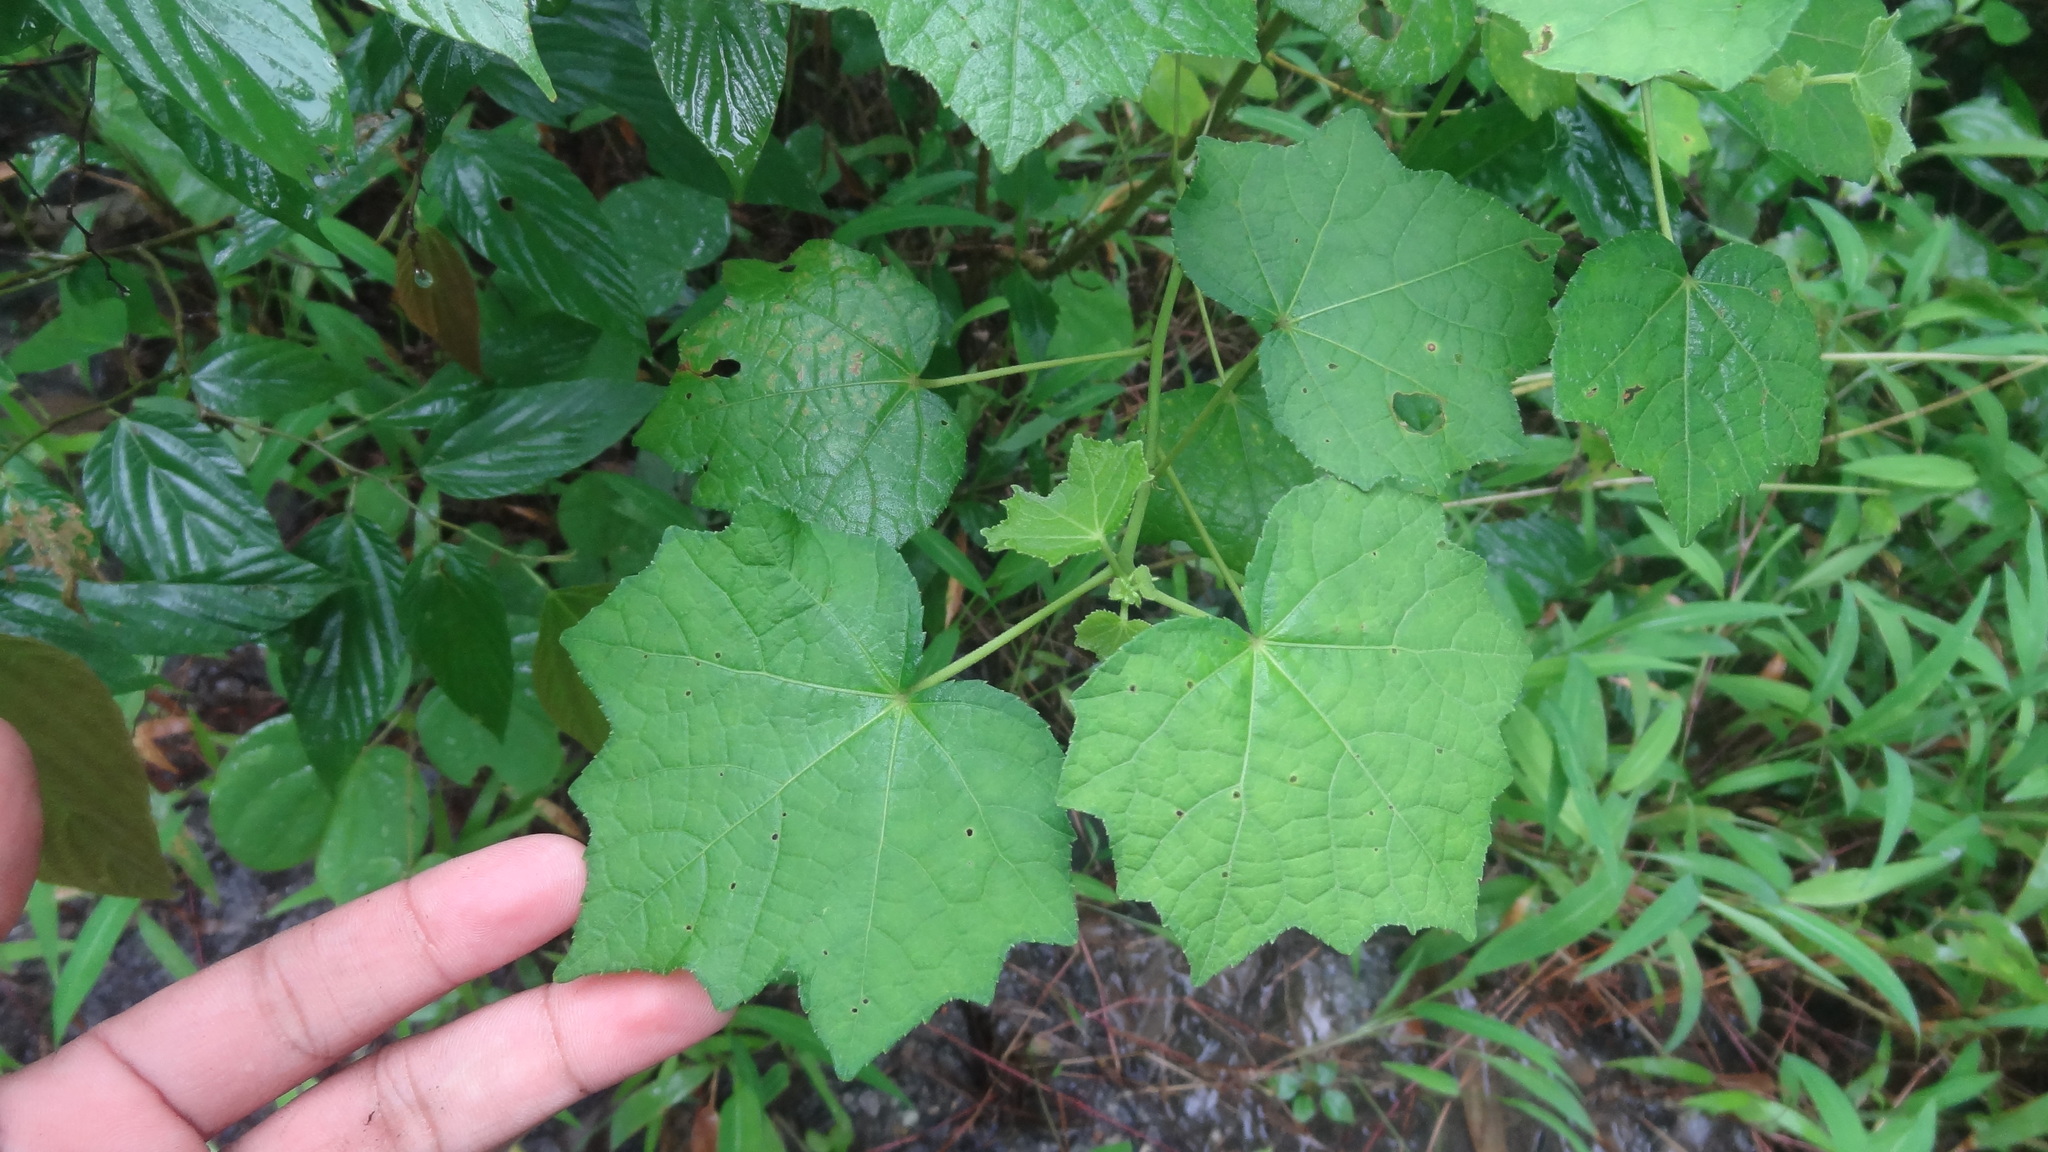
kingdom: Plantae
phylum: Tracheophyta
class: Magnoliopsida
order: Malvales
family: Malvaceae
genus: Urena
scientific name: Urena lobata
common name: Caesarweed
